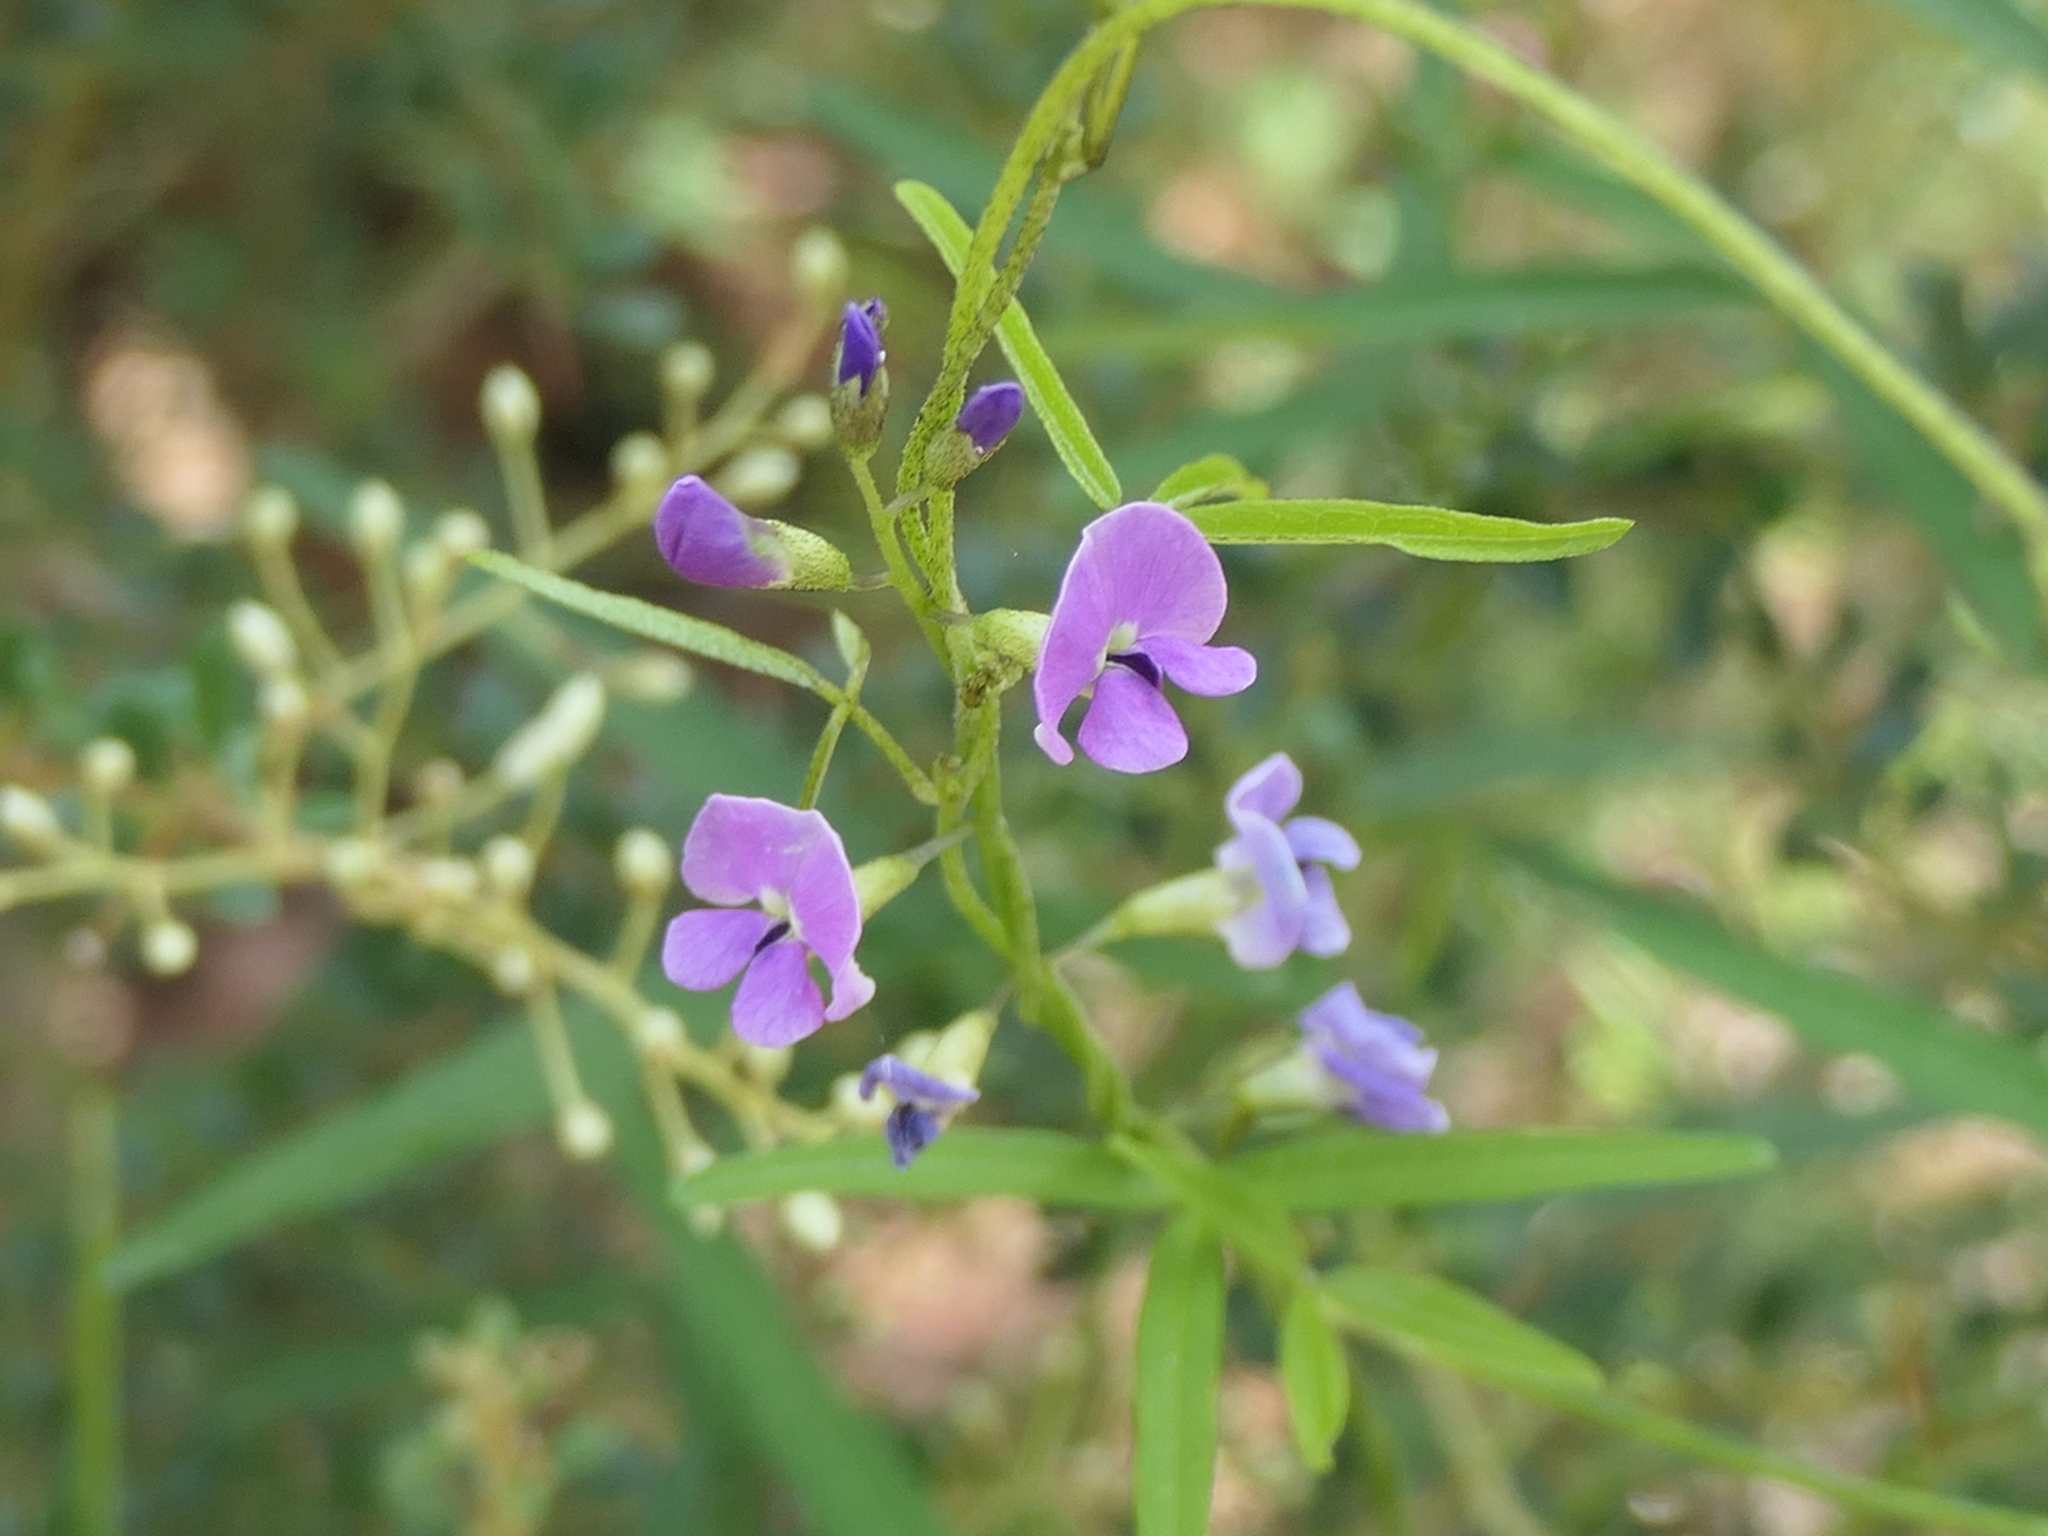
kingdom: Plantae
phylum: Tracheophyta
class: Magnoliopsida
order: Fabales
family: Fabaceae
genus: Glycine
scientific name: Glycine clandestina
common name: Twining glycine
